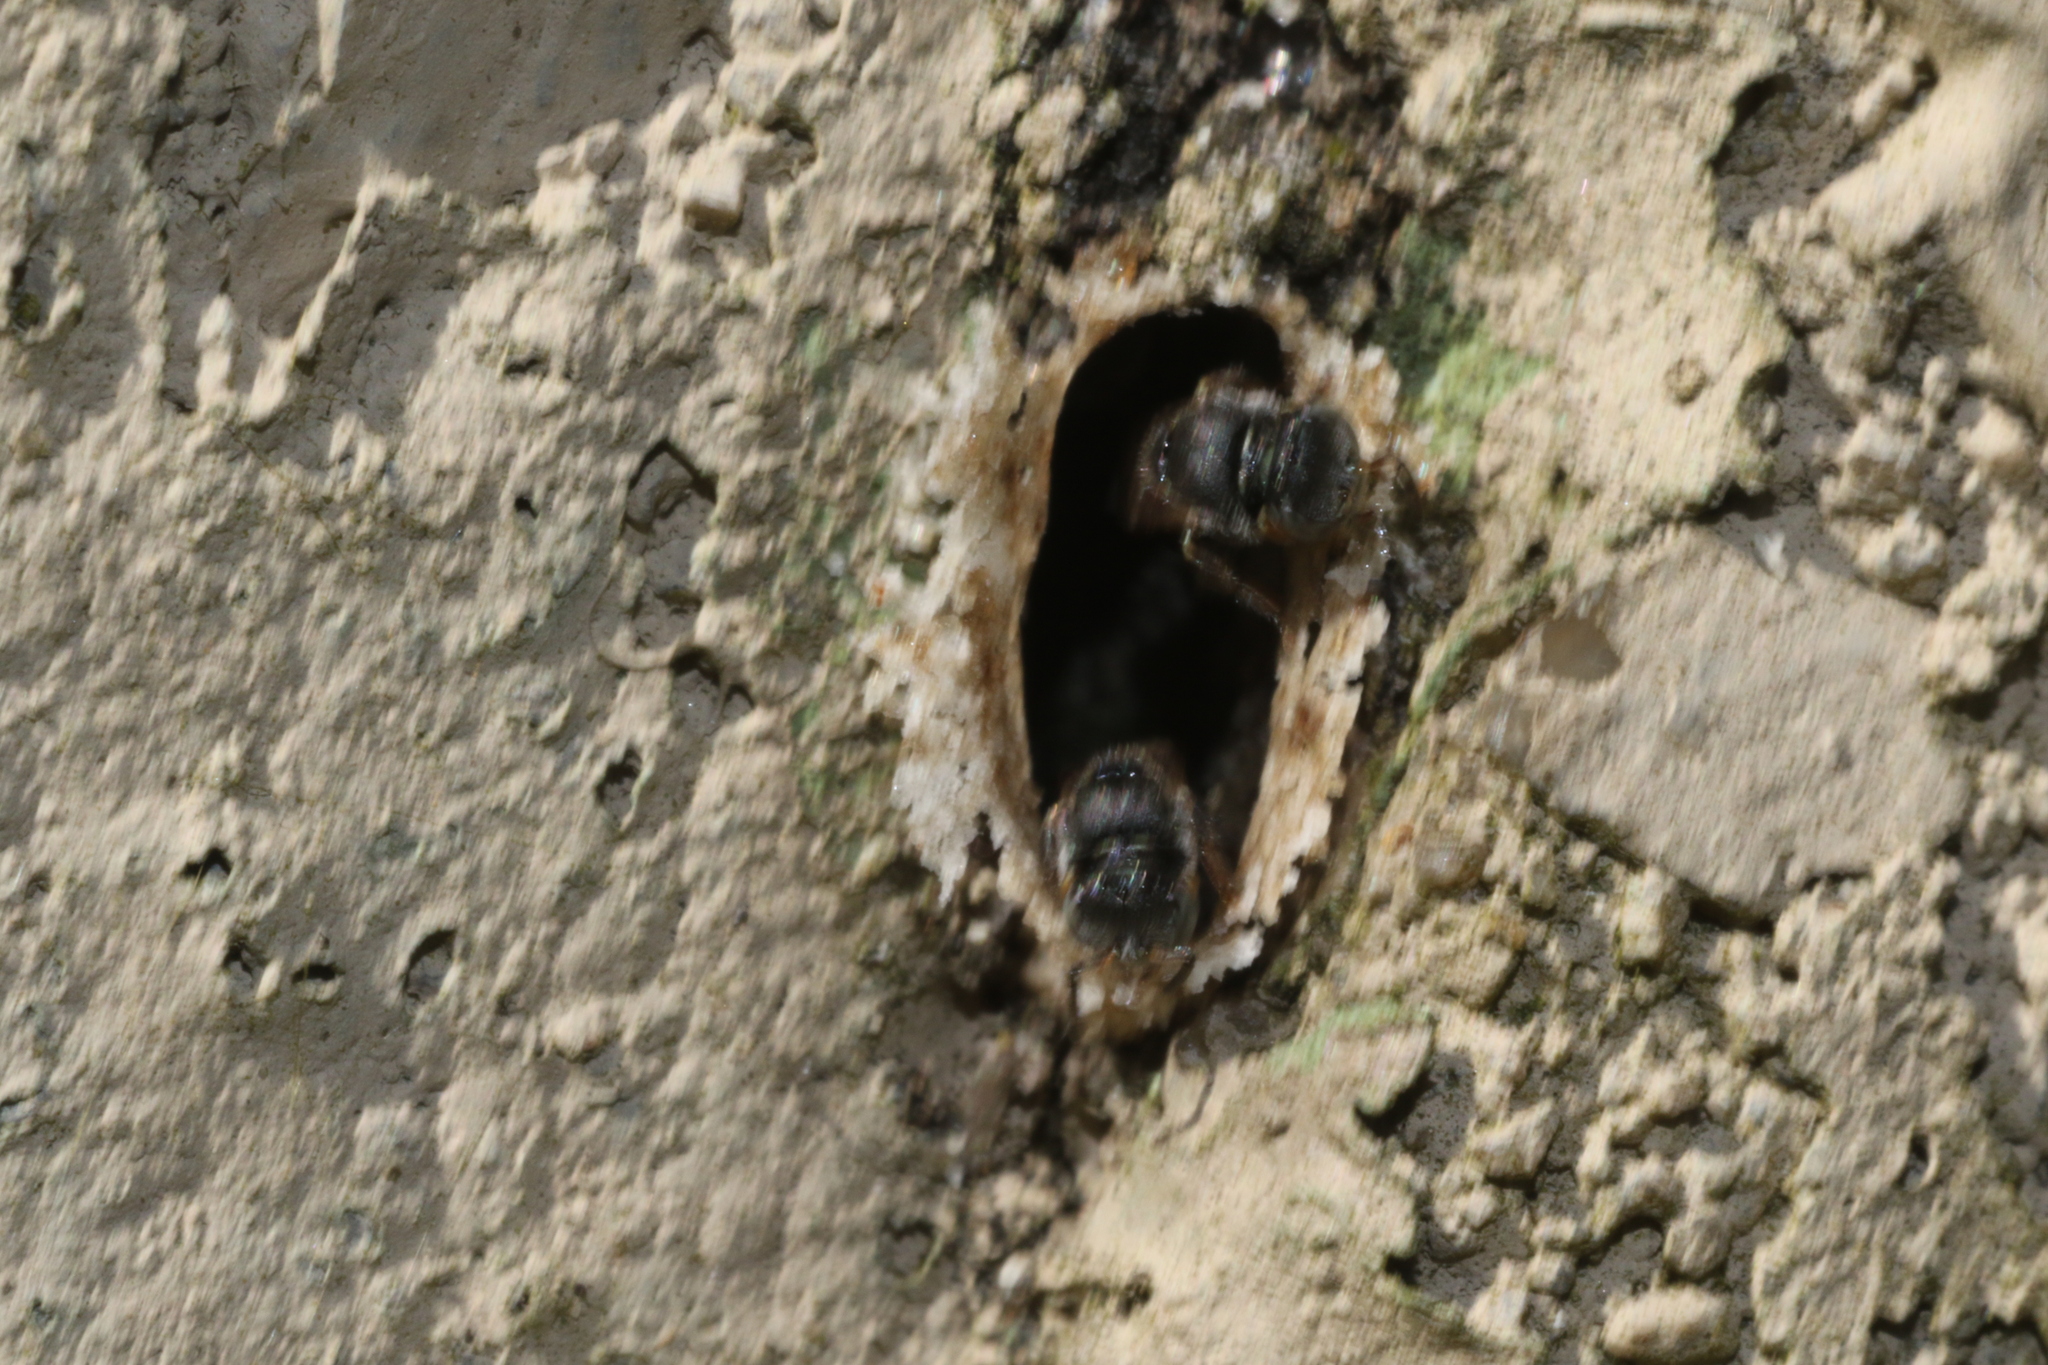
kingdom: Animalia
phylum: Arthropoda
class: Insecta
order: Hymenoptera
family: Apidae
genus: Friesella
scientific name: Friesella schrottkyi
